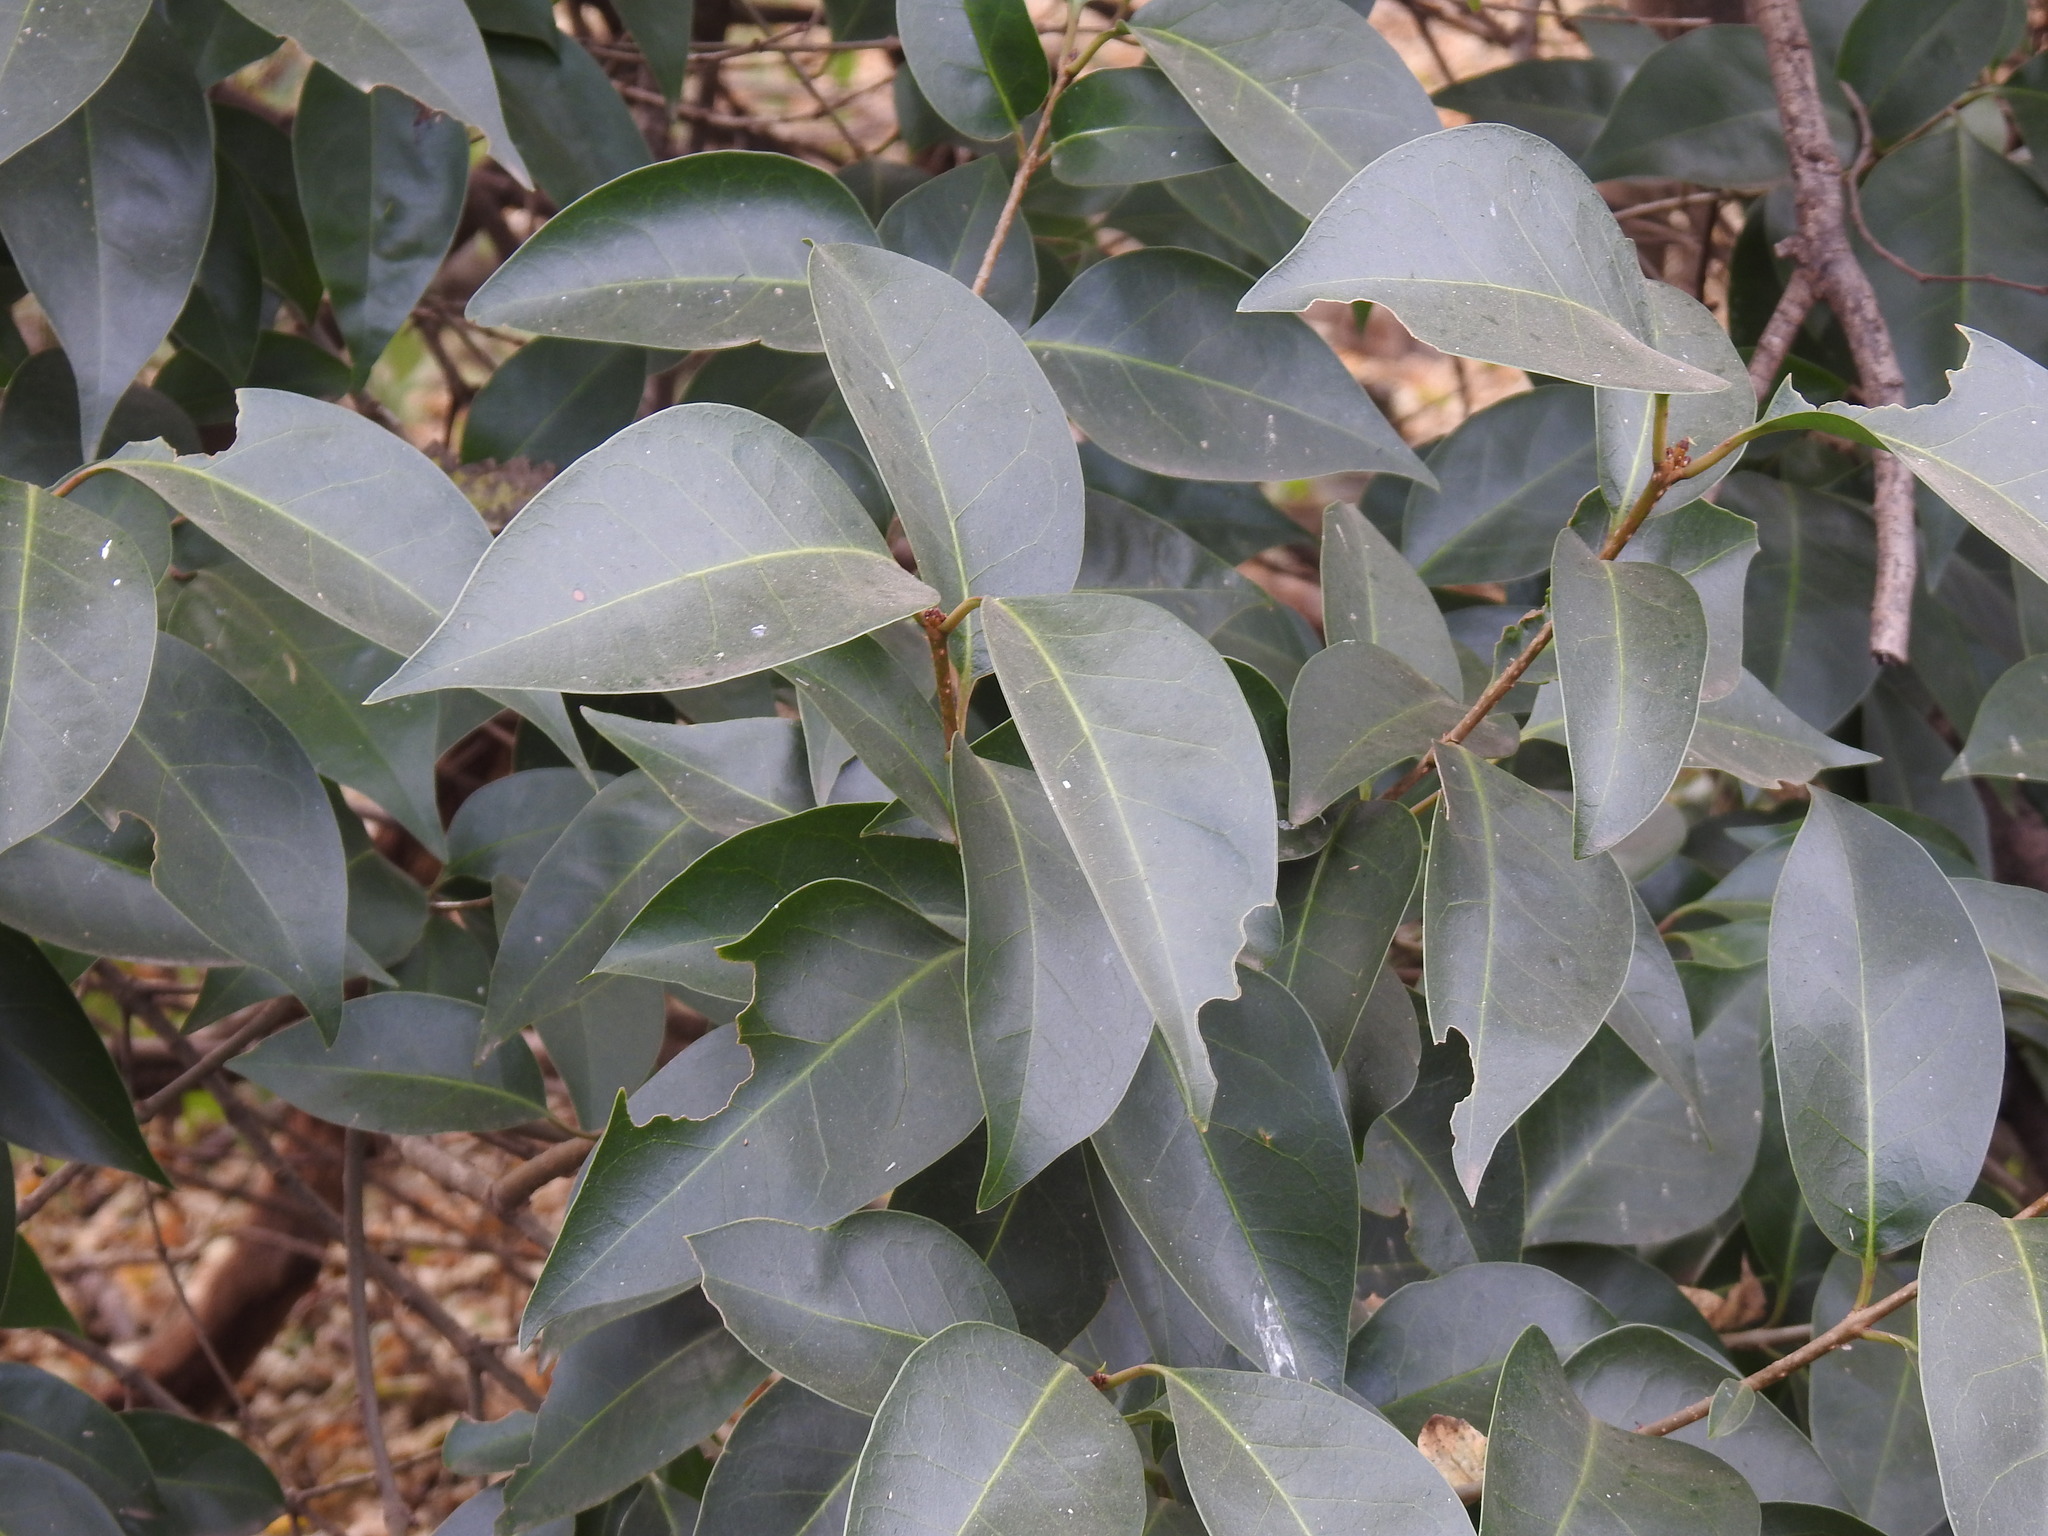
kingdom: Plantae
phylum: Tracheophyta
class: Magnoliopsida
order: Lamiales
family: Oleaceae
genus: Ligustrum
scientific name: Ligustrum lucidum
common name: Glossy privet
